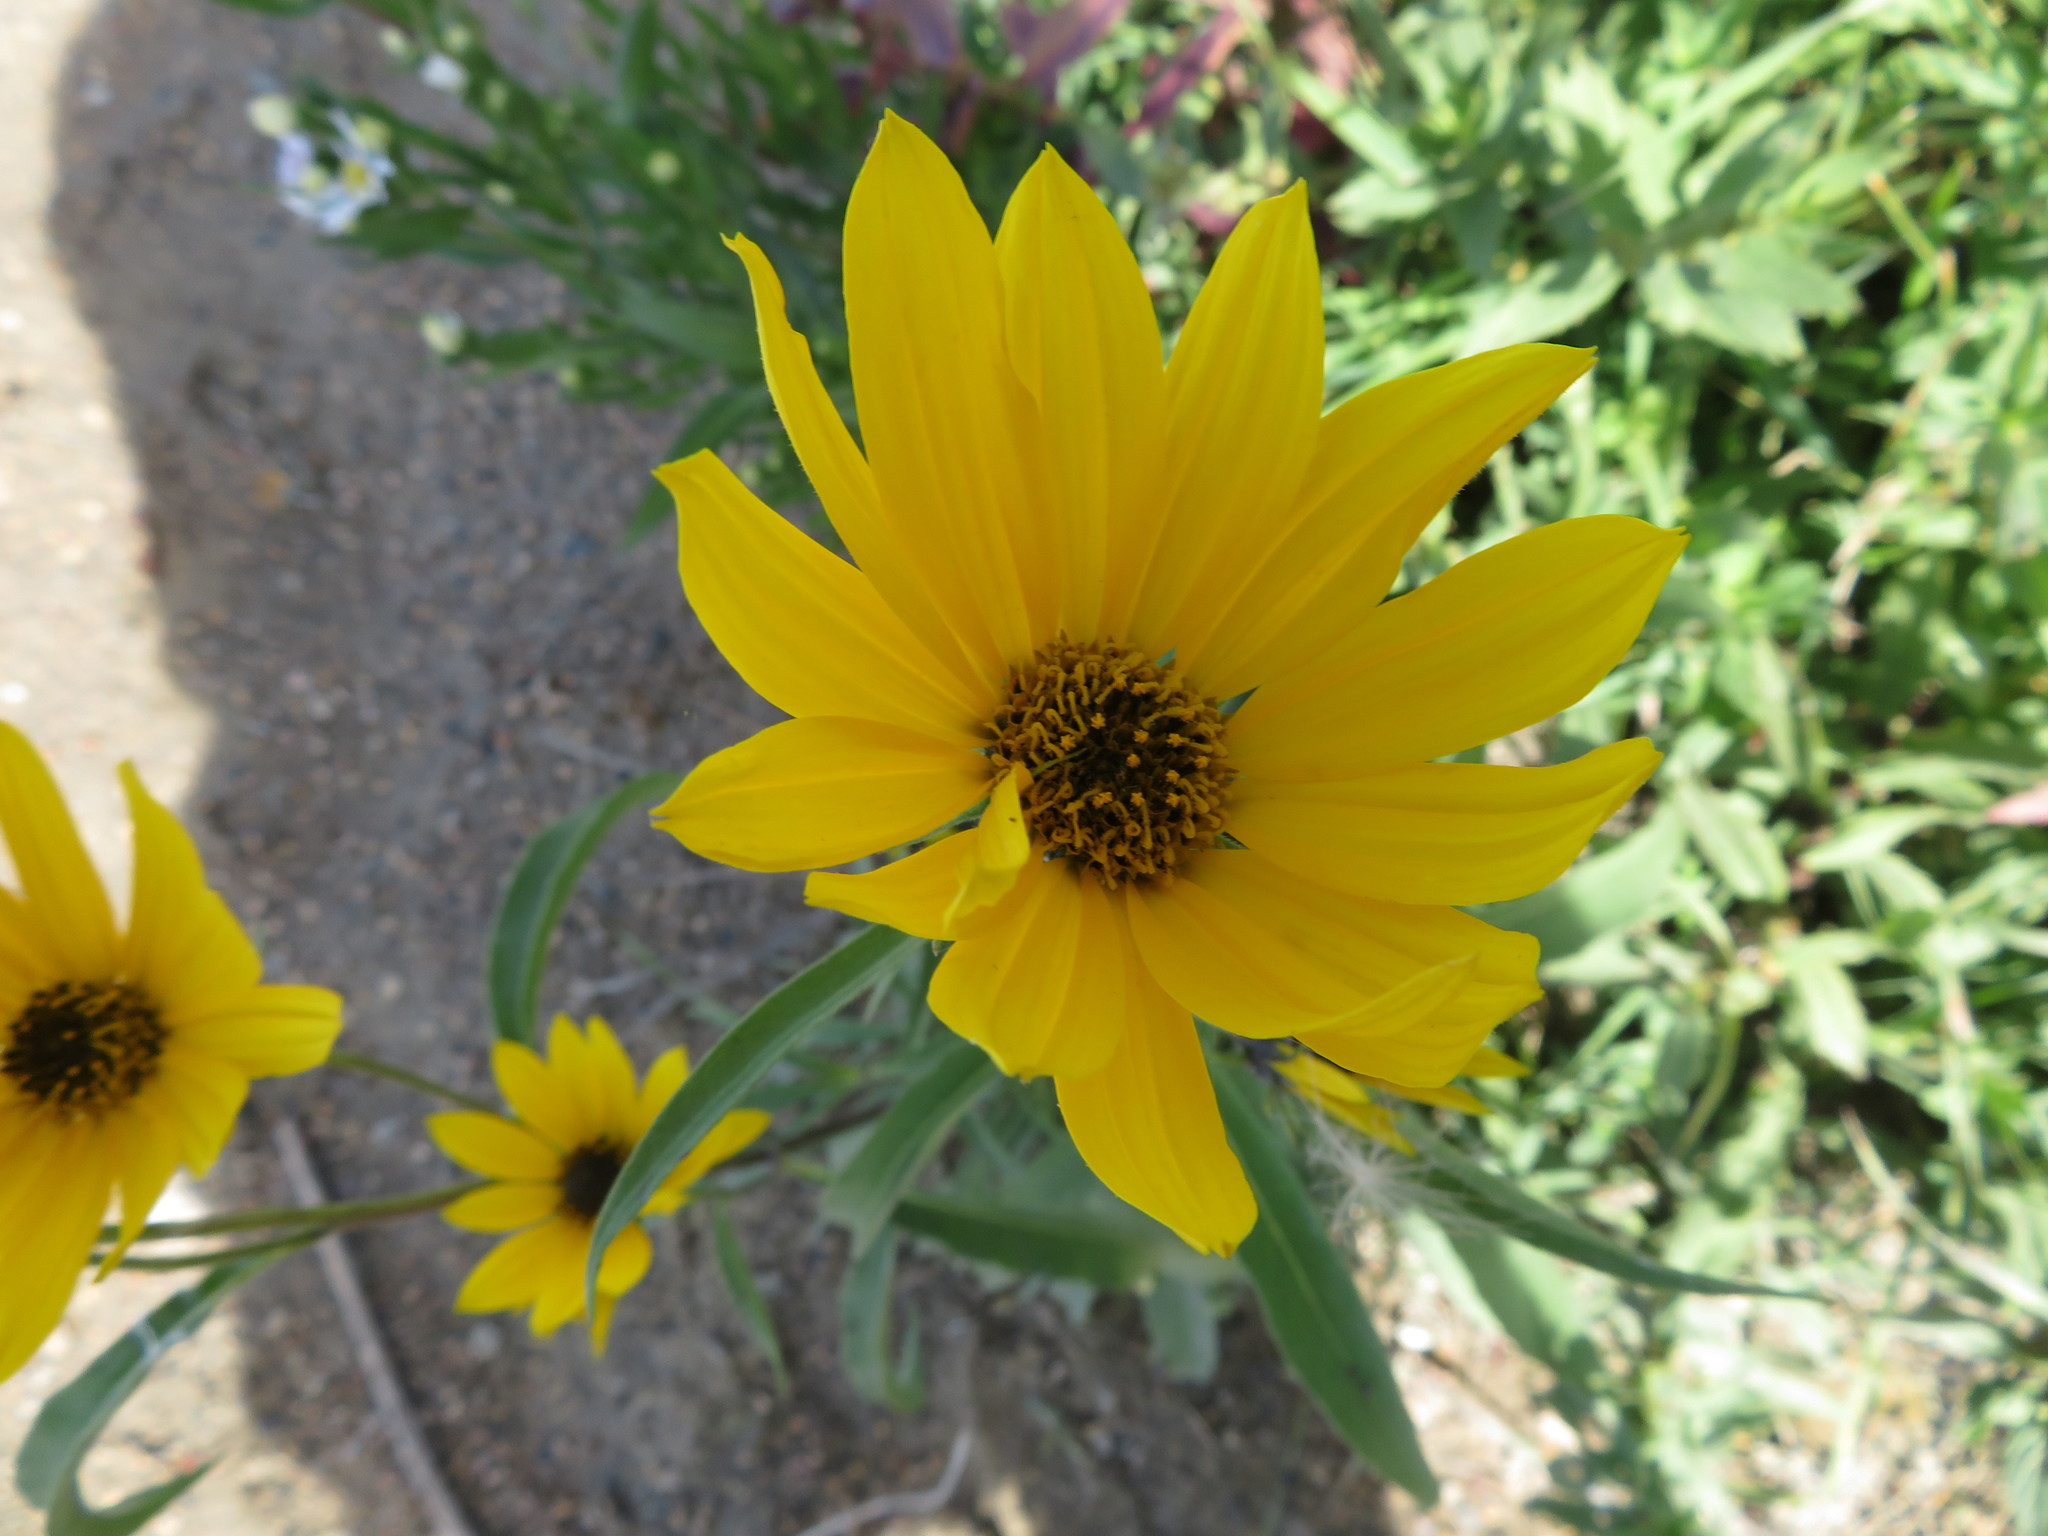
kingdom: Plantae
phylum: Tracheophyta
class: Magnoliopsida
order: Asterales
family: Asteraceae
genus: Helianthus
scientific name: Helianthus maximiliani
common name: Maximilian's sunflower
